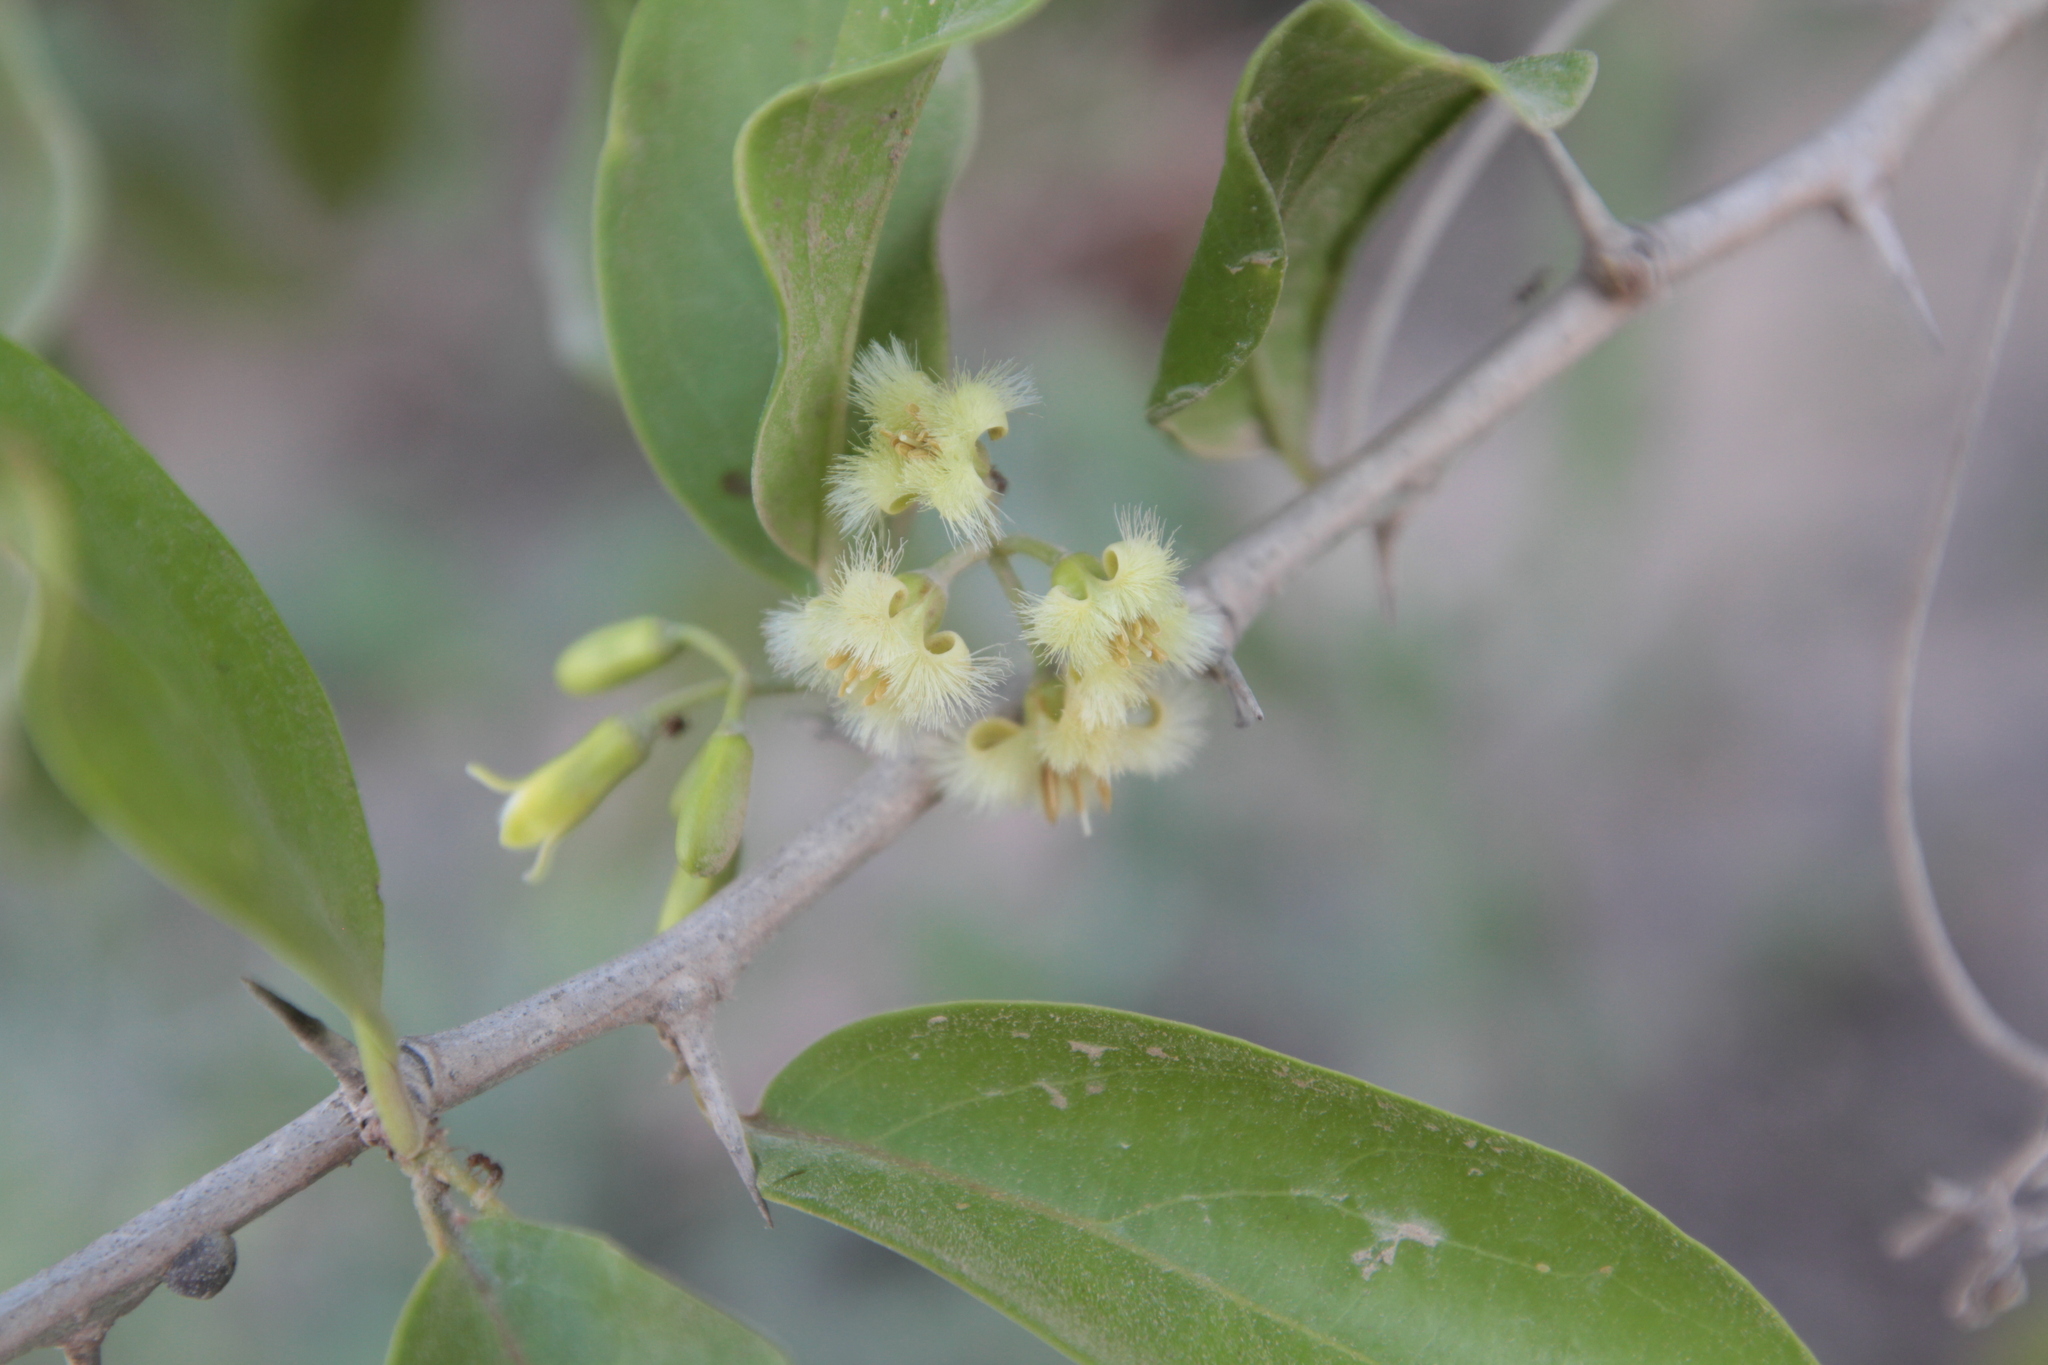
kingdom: Plantae
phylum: Tracheophyta
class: Magnoliopsida
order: Santalales
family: Ximeniaceae
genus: Ximenia
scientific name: Ximenia americana
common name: Tallowwood
